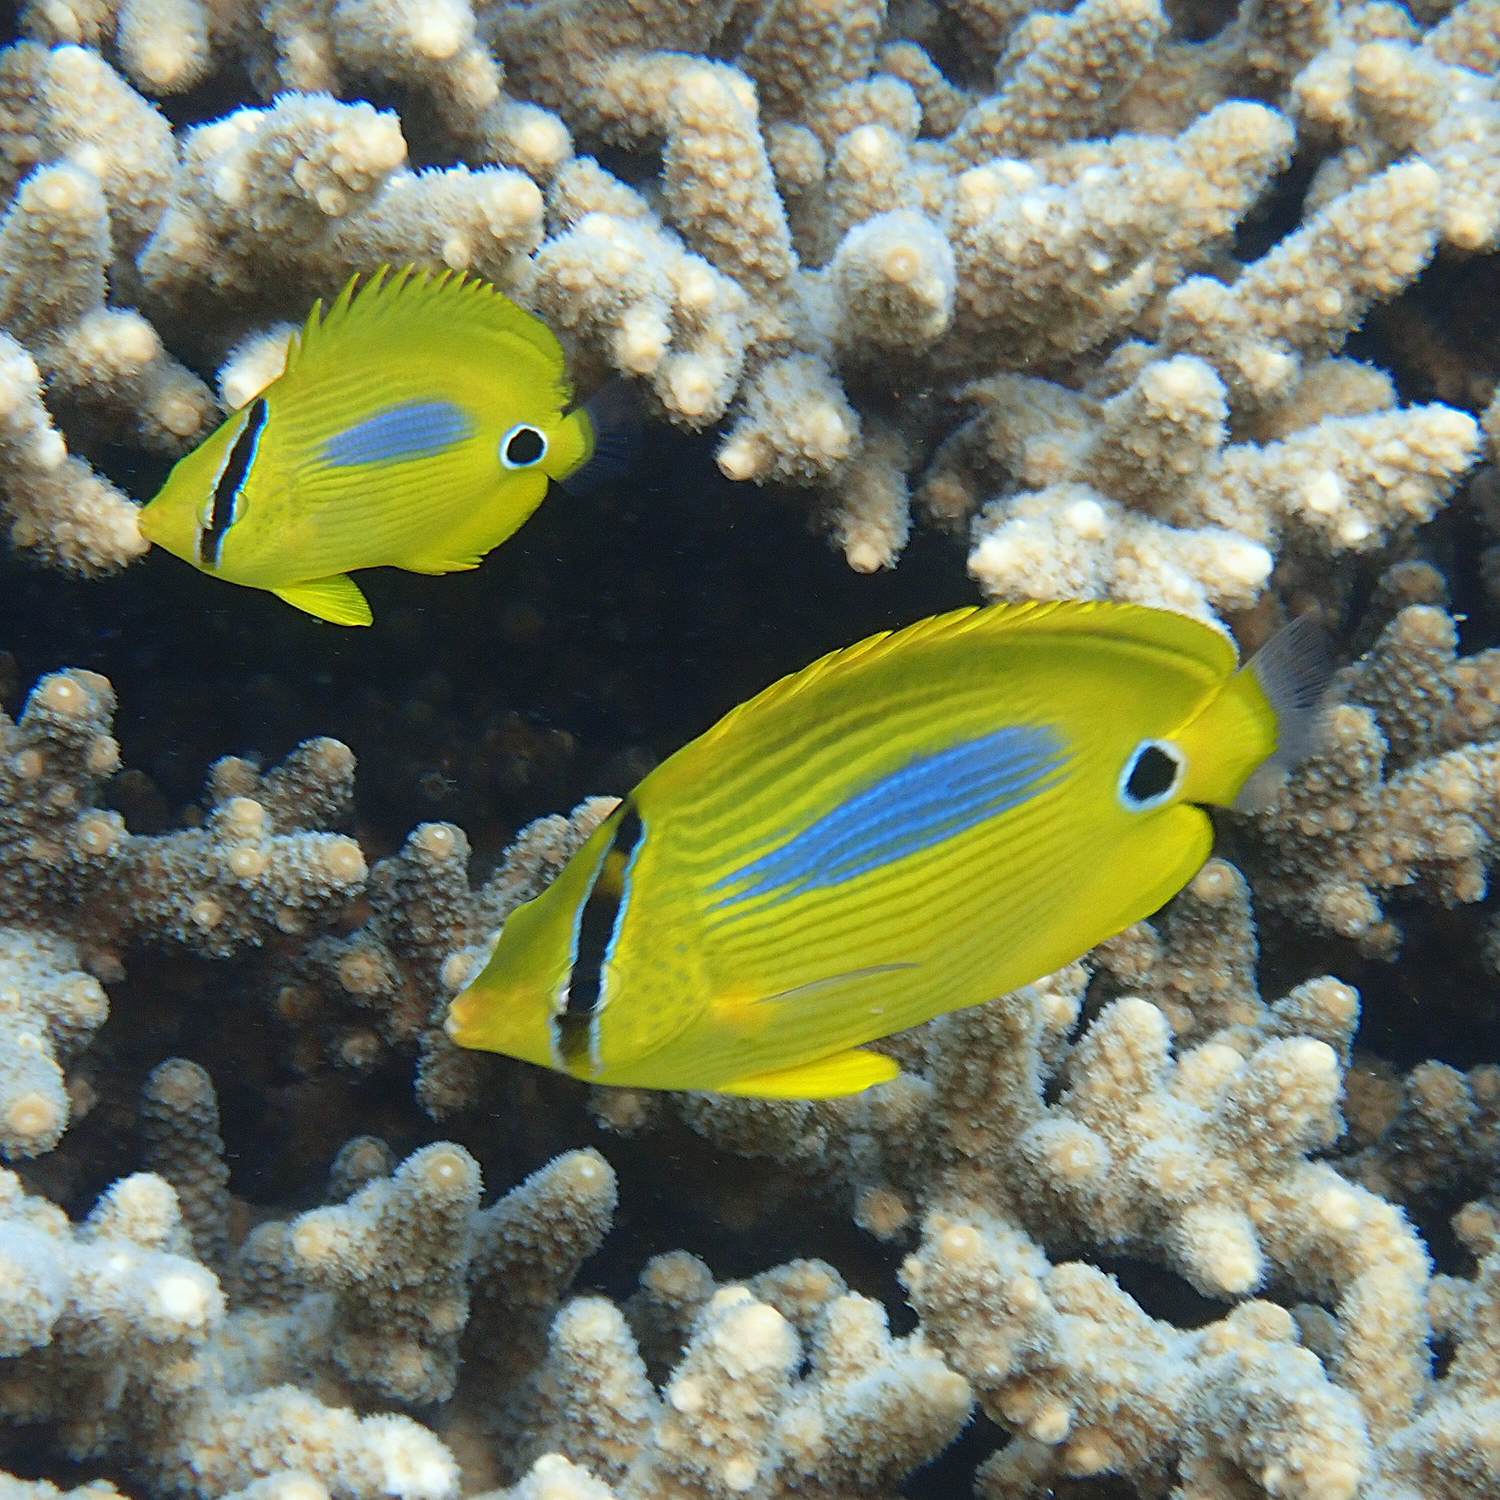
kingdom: Animalia
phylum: Chordata
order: Perciformes
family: Chaetodontidae
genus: Chaetodon
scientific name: Chaetodon plebeius
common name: Bluespot butterflyfish
